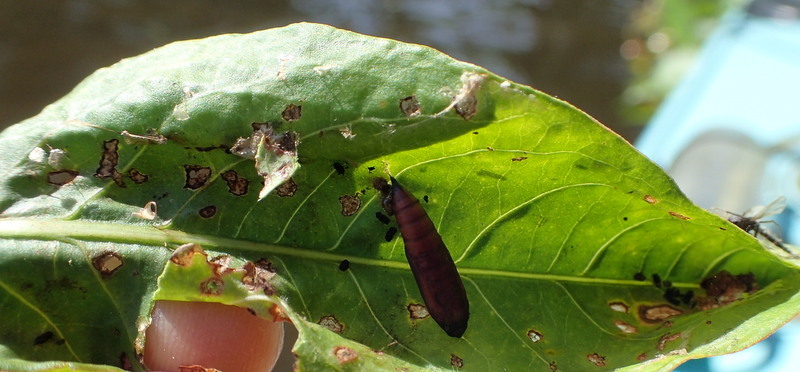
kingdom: Animalia
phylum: Arthropoda
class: Insecta
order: Coleoptera
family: Chrysomelidae
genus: Agasicles
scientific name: Agasicles hygrophila
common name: Alligatorweed flea beetle
